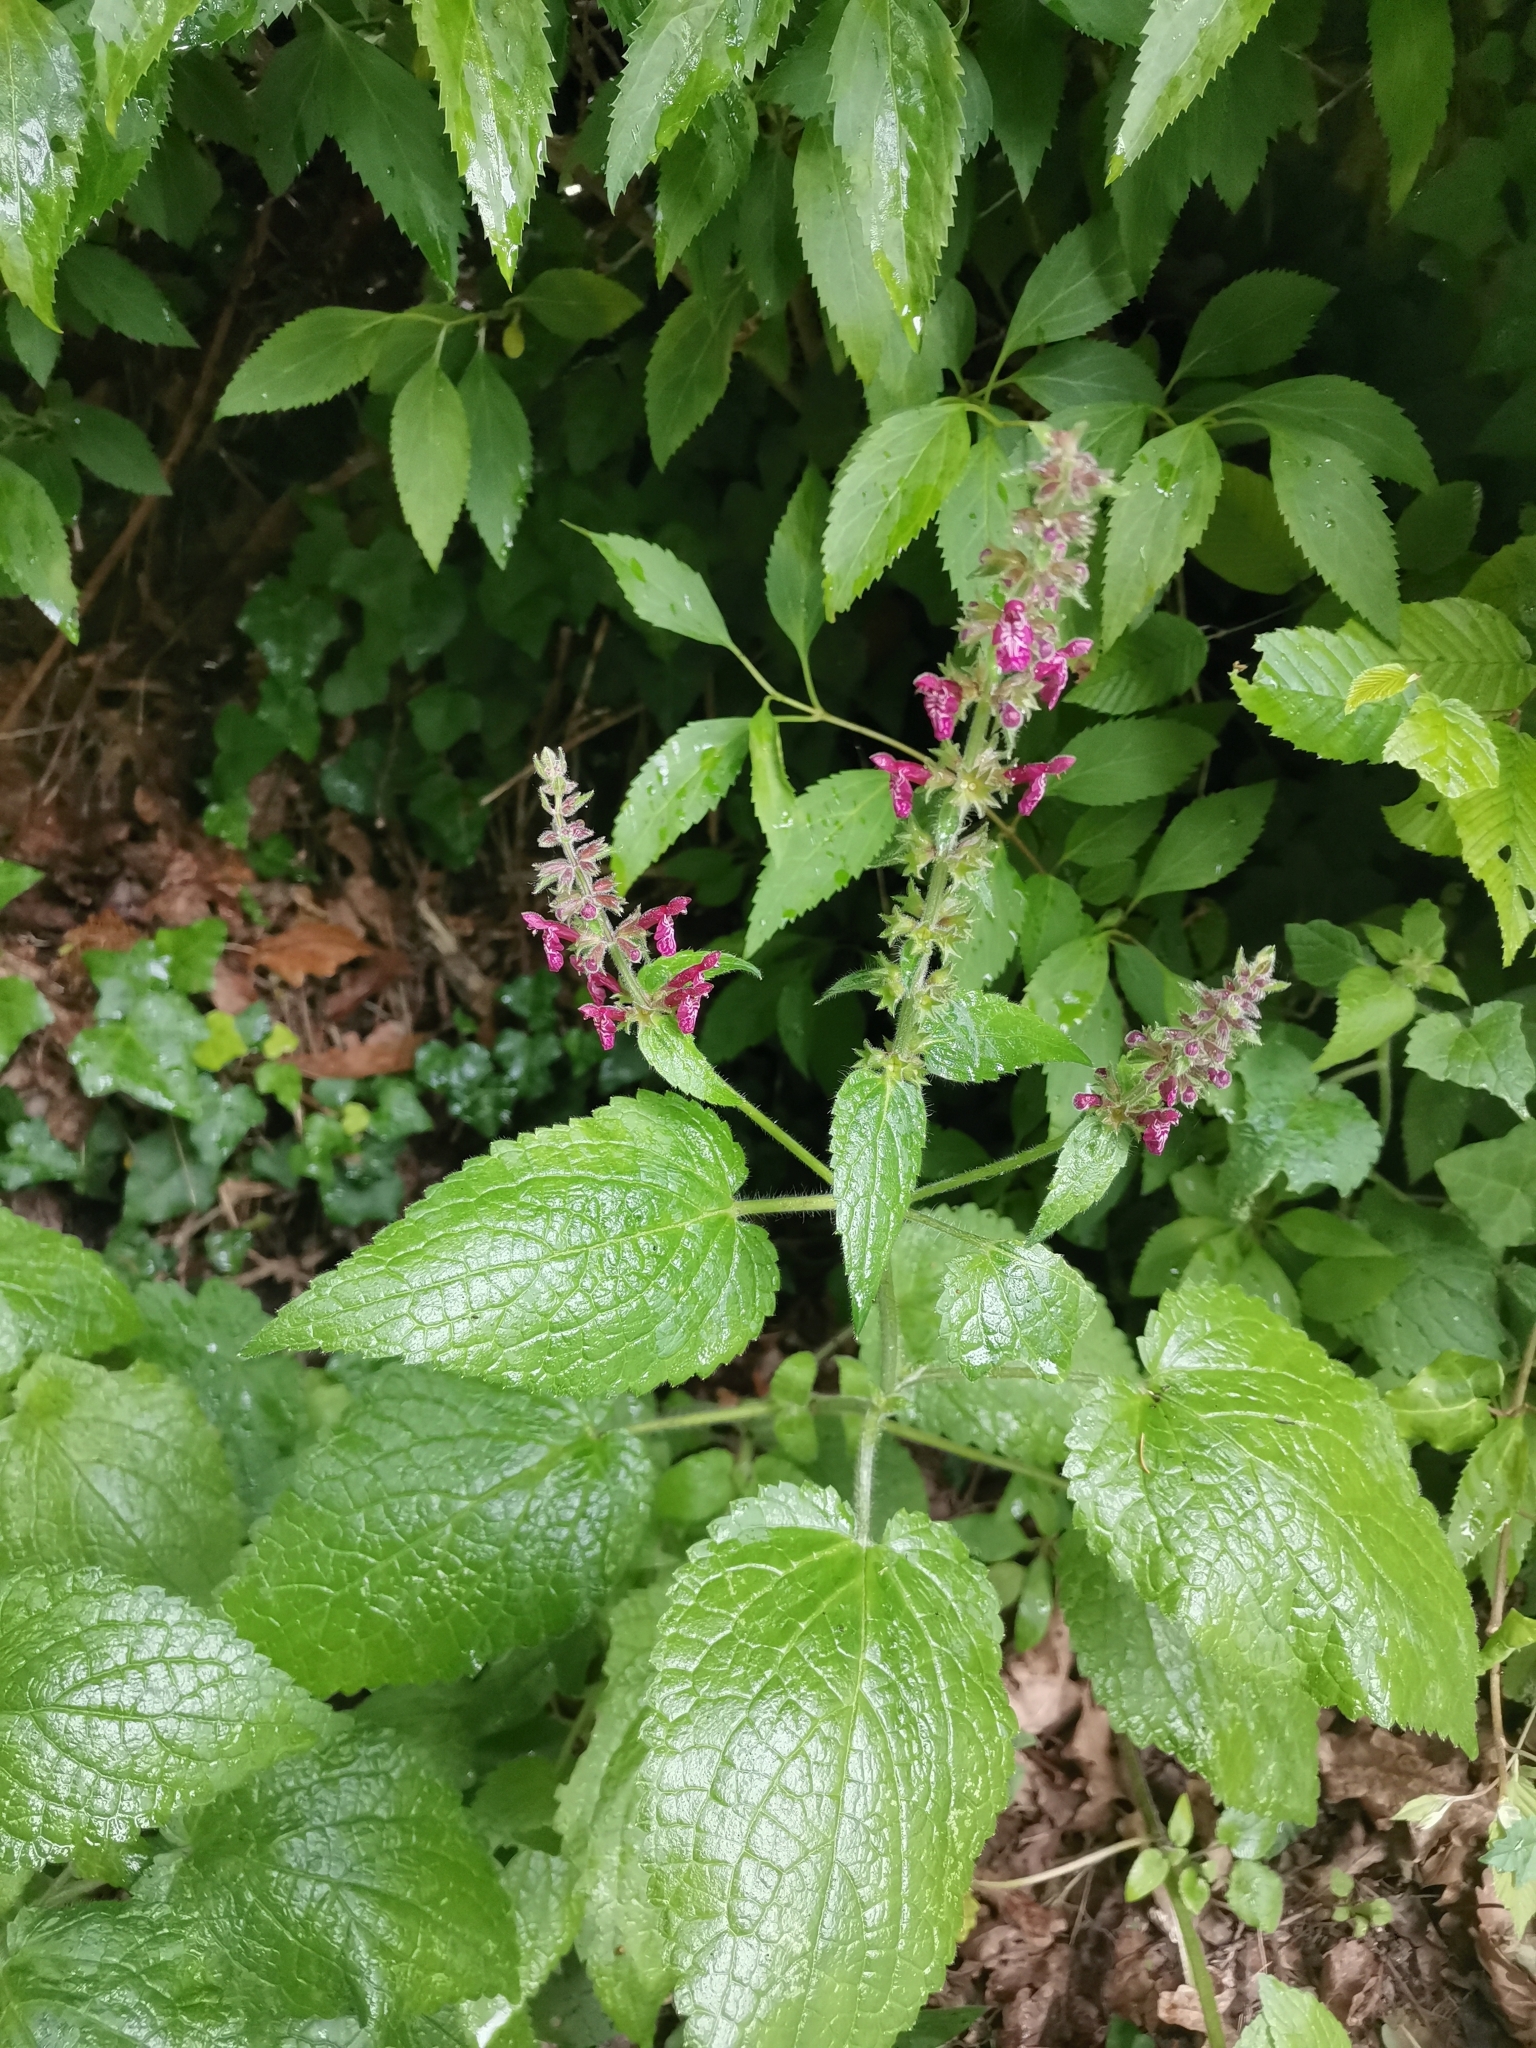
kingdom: Plantae
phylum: Tracheophyta
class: Magnoliopsida
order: Lamiales
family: Lamiaceae
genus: Stachys
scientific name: Stachys sylvatica
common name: Hedge woundwort
